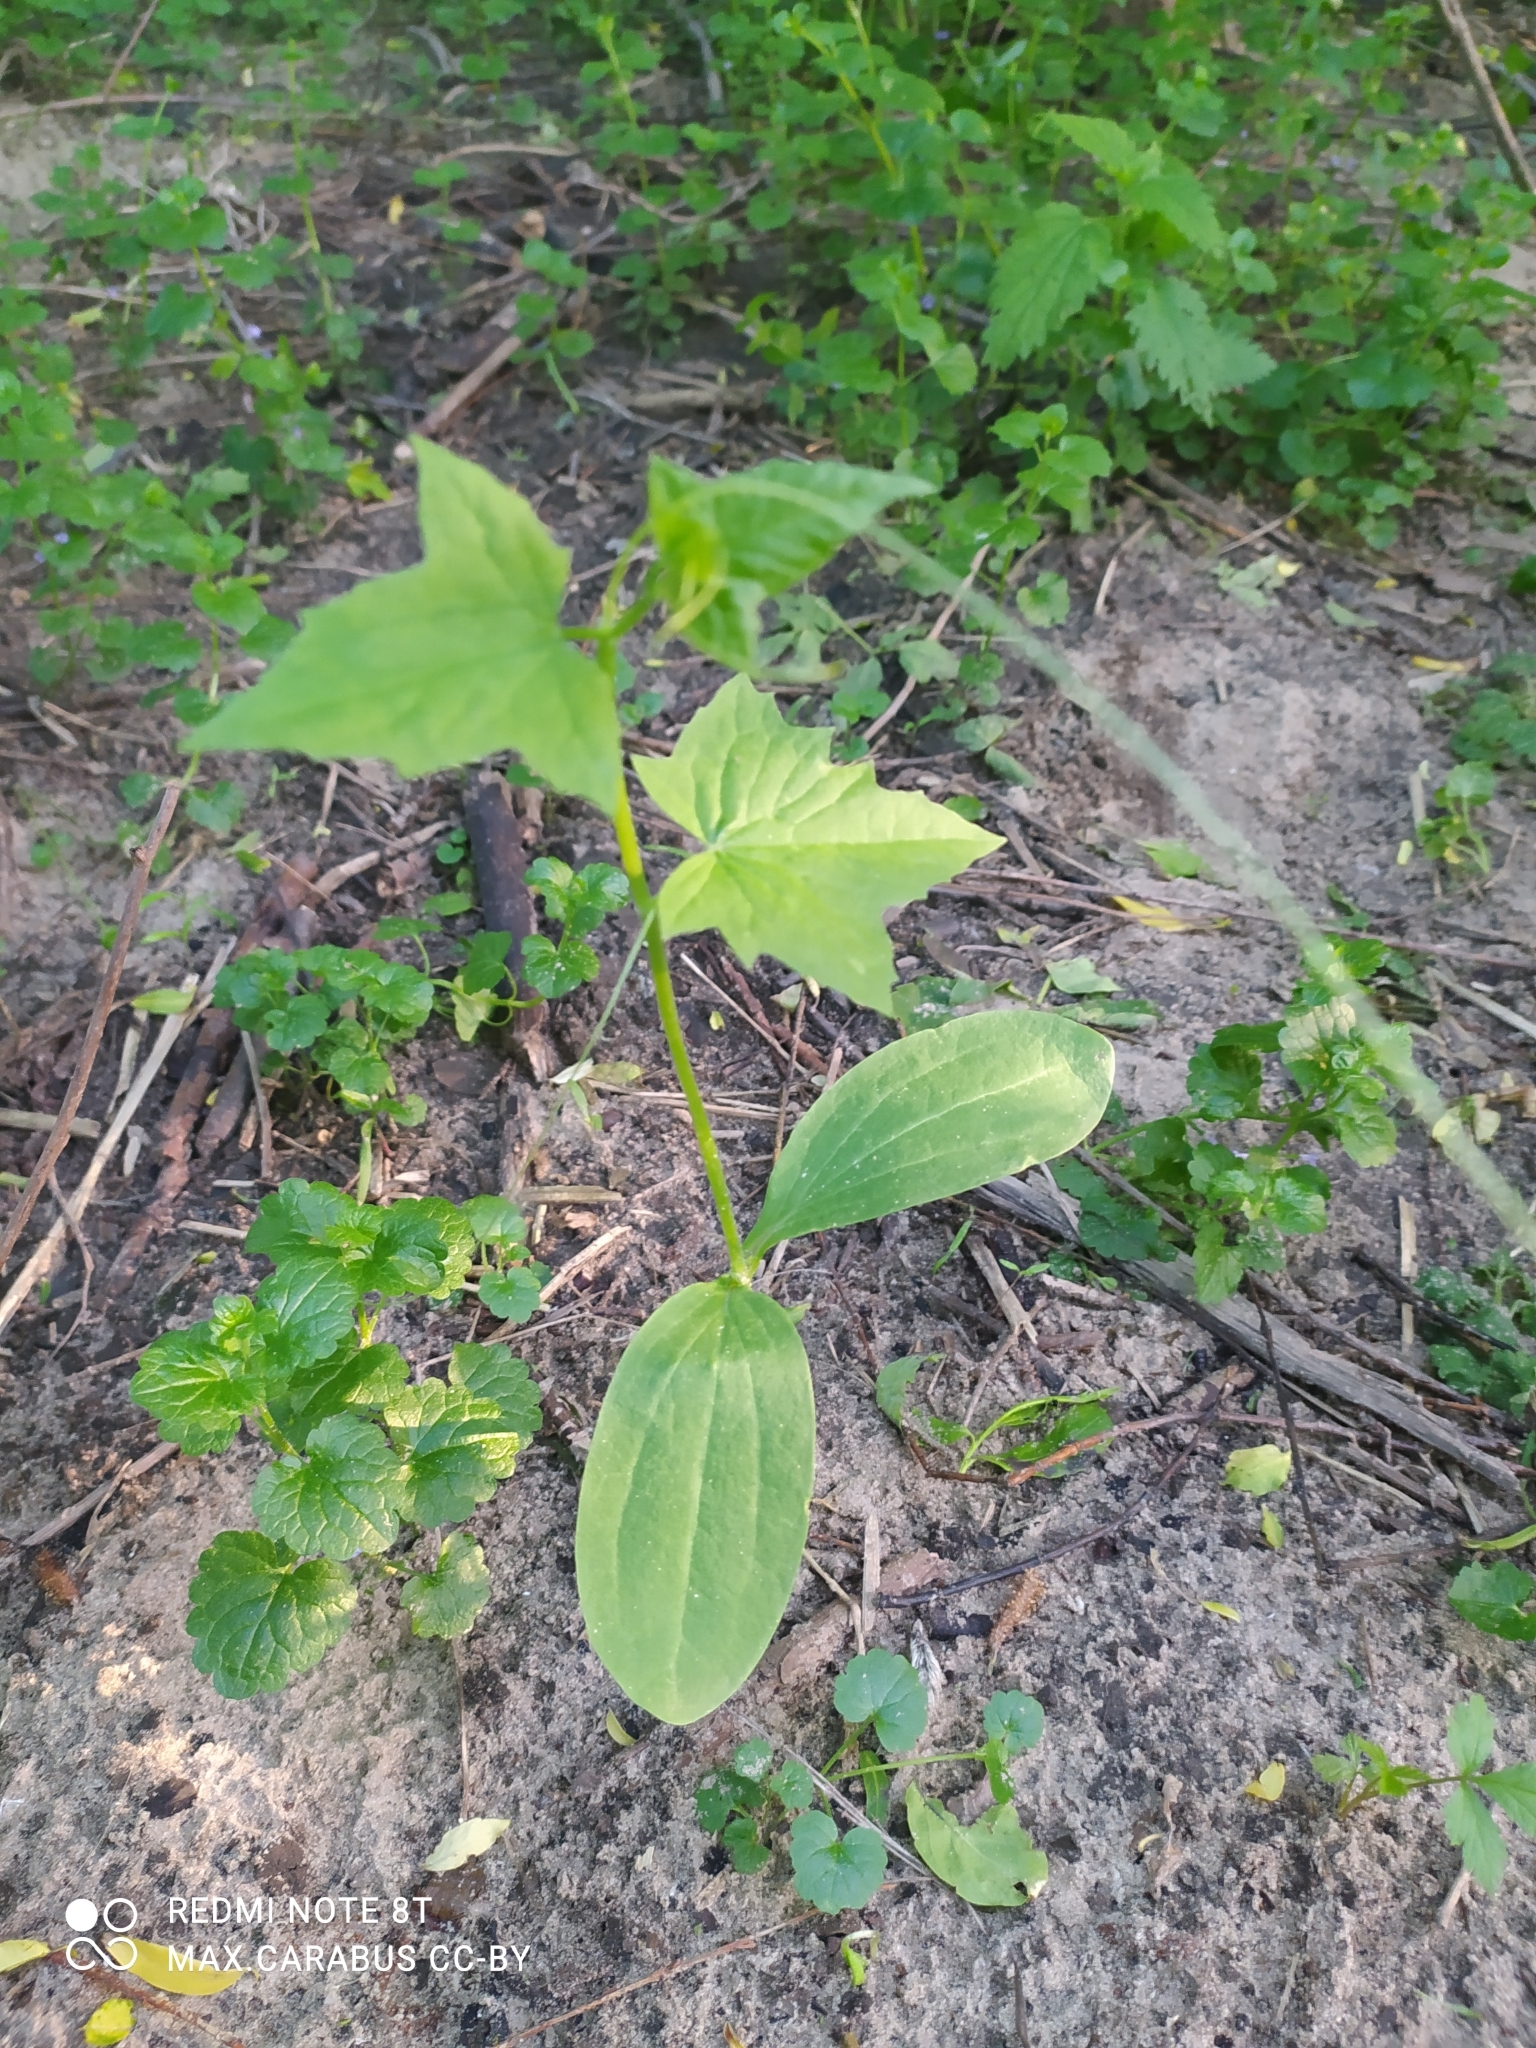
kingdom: Plantae
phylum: Tracheophyta
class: Magnoliopsida
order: Cucurbitales
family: Cucurbitaceae
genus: Echinocystis
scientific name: Echinocystis lobata
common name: Wild cucumber
